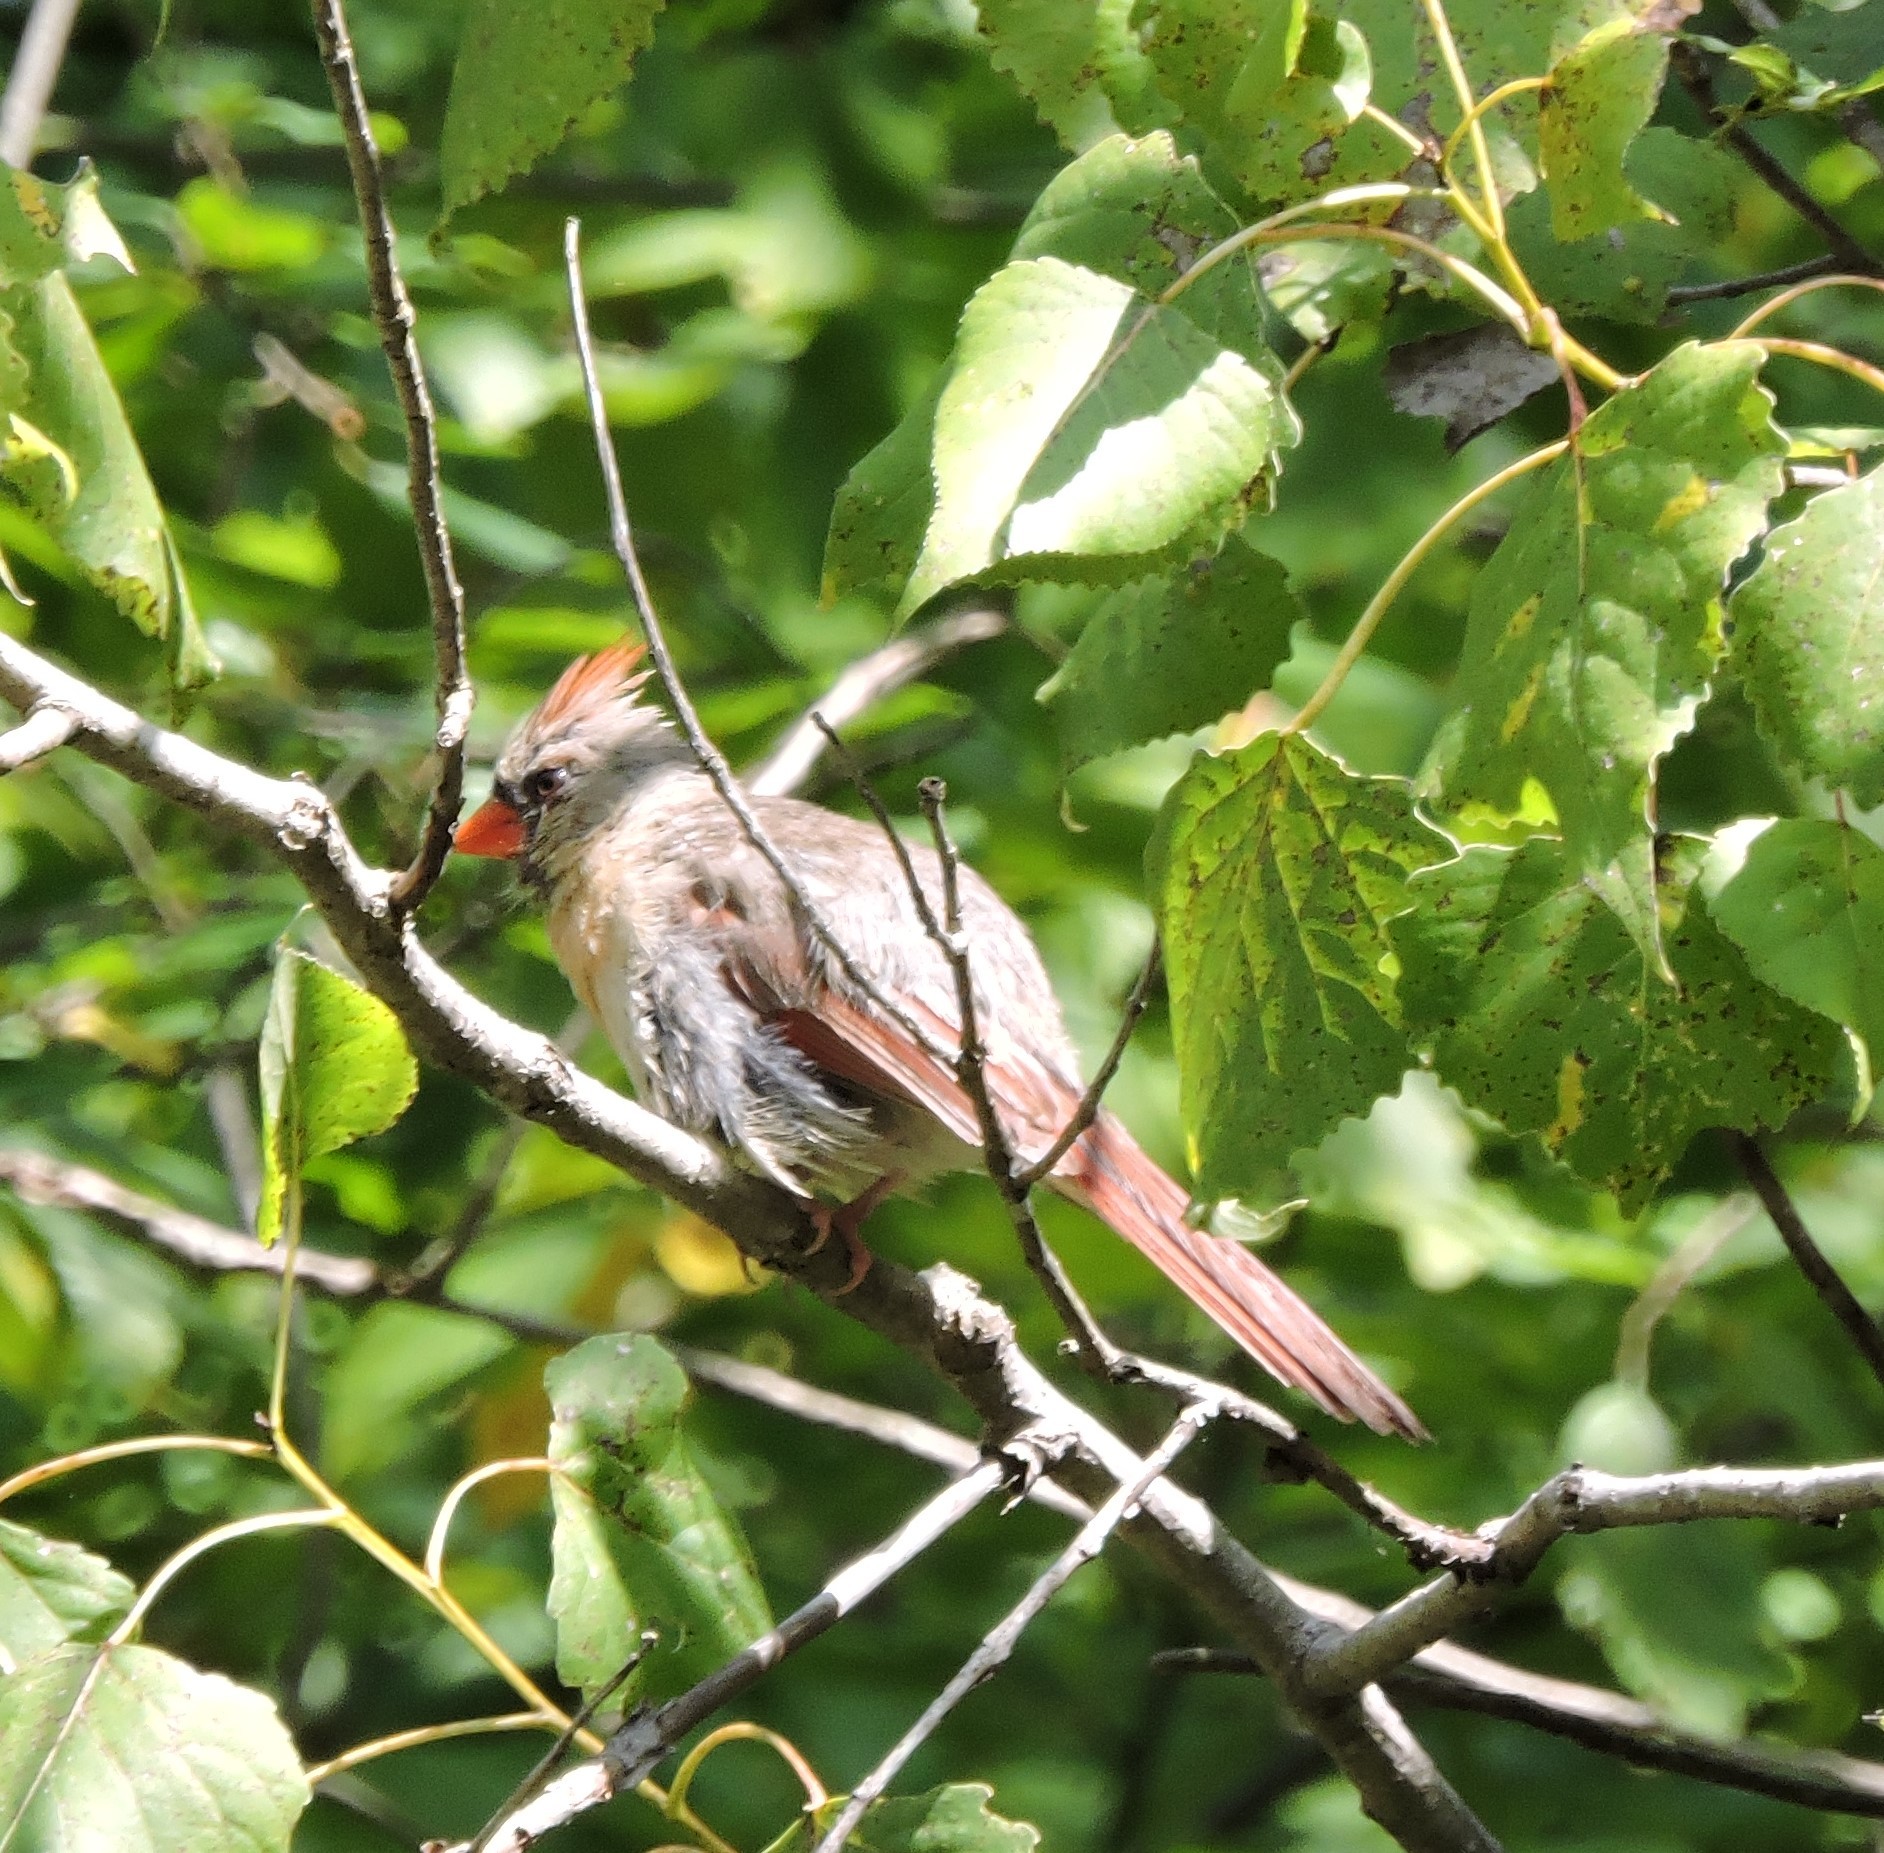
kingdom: Animalia
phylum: Chordata
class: Aves
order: Passeriformes
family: Cardinalidae
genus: Cardinalis
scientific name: Cardinalis cardinalis
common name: Northern cardinal
